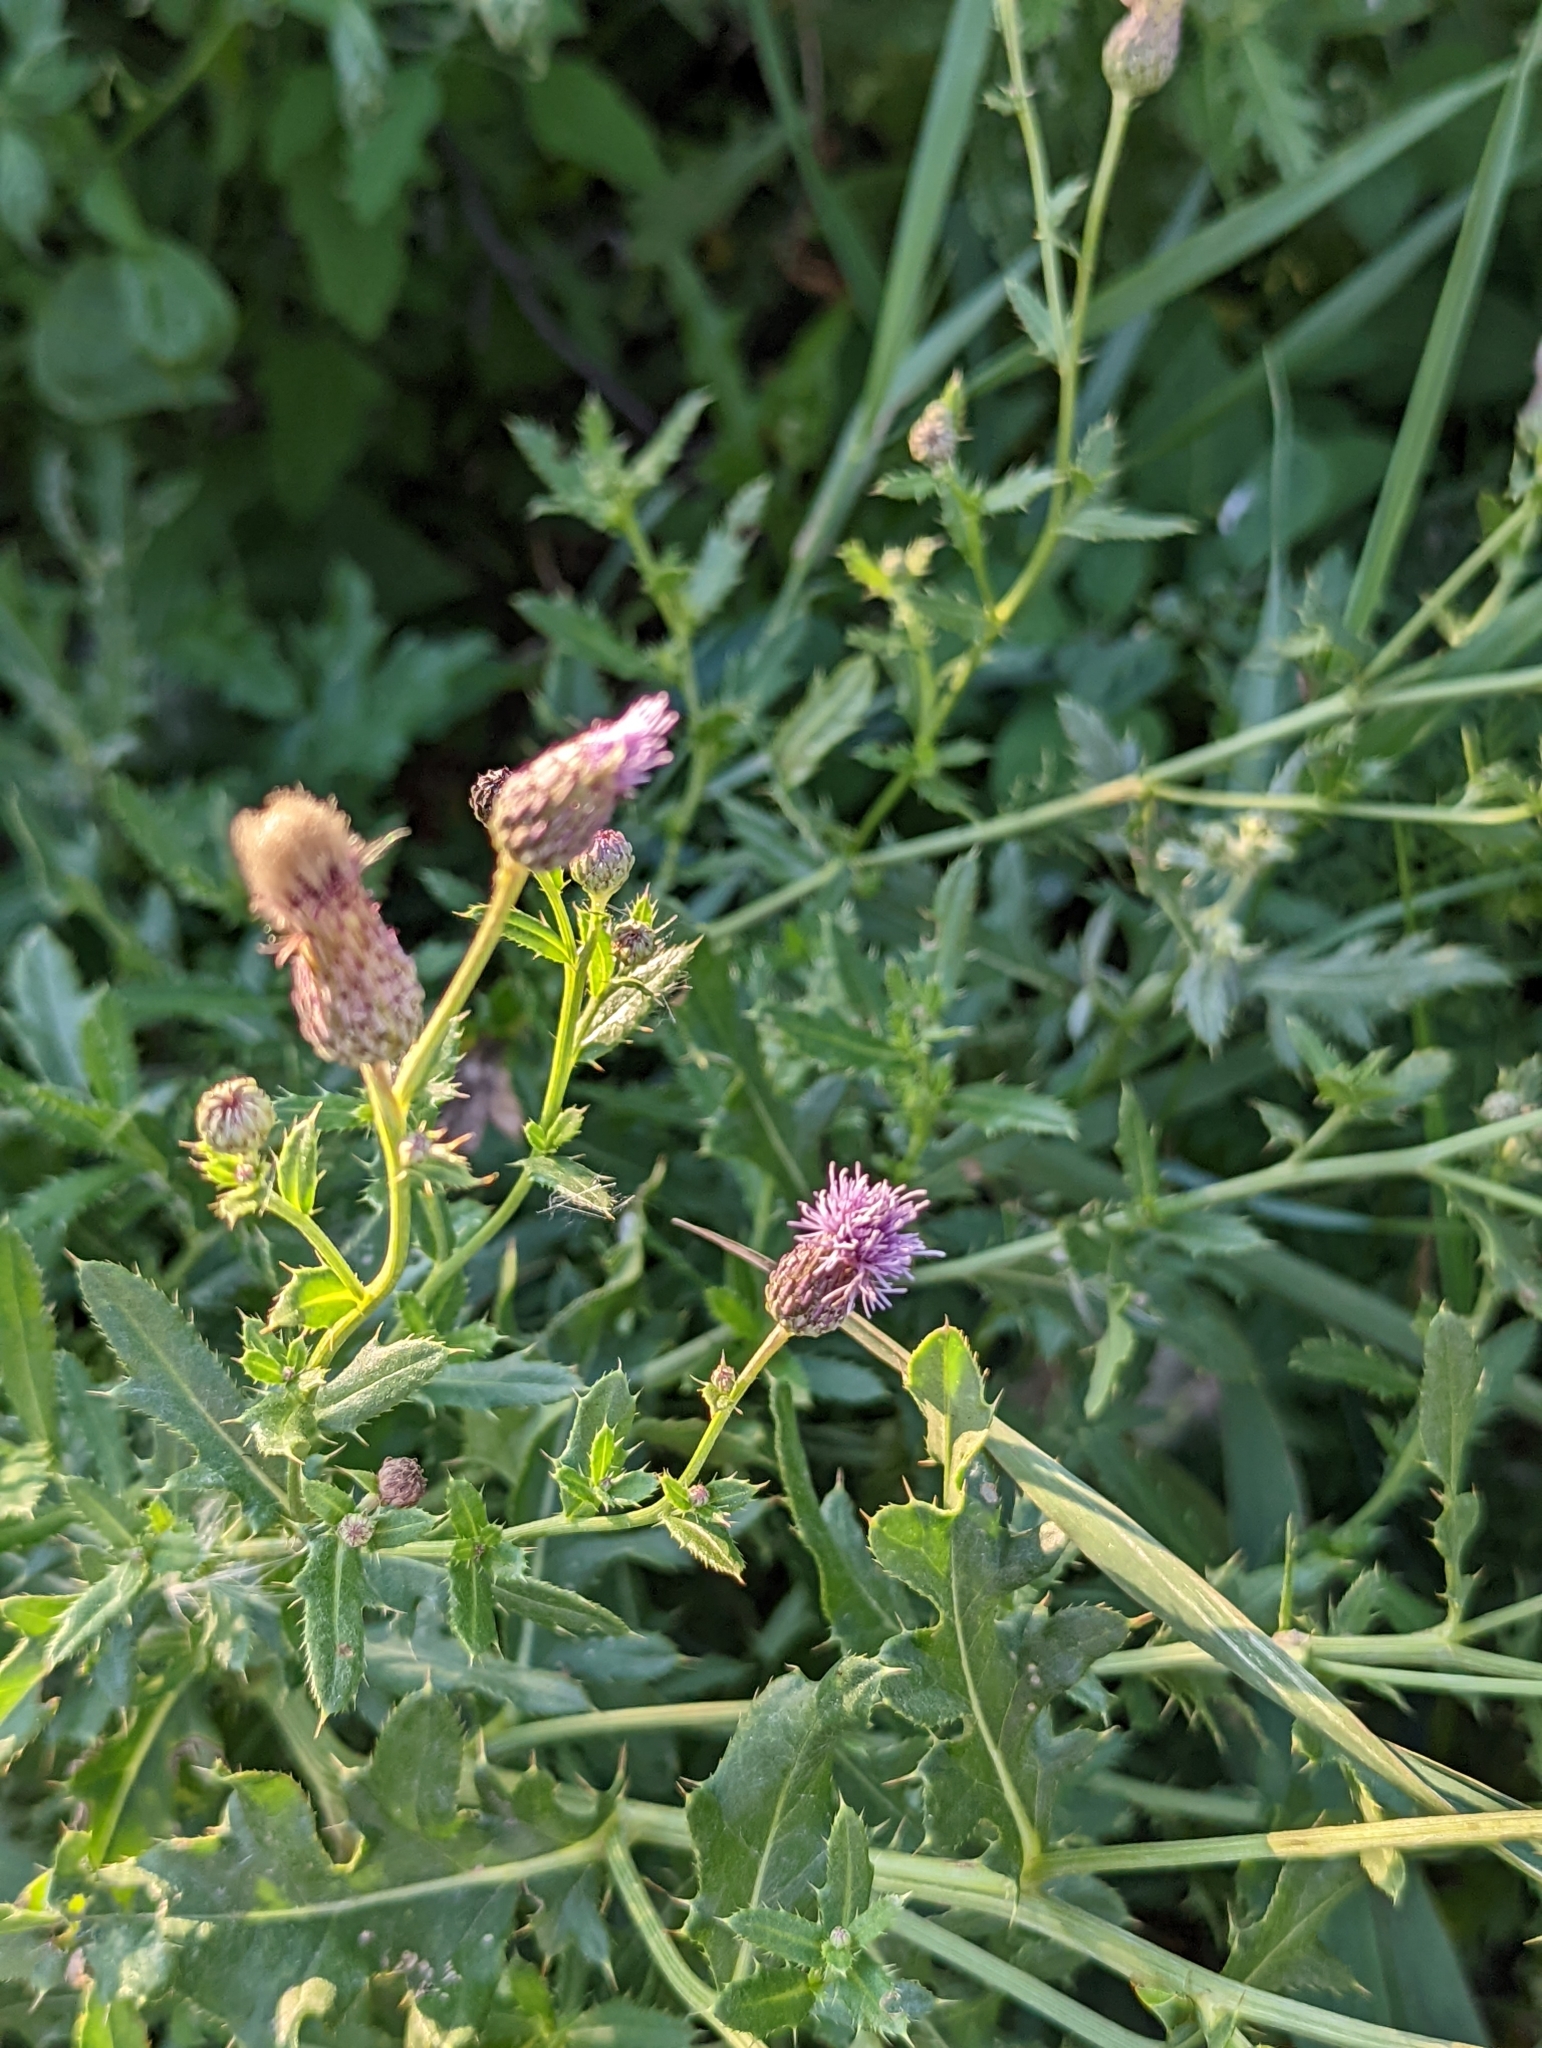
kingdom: Plantae
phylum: Tracheophyta
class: Magnoliopsida
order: Asterales
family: Asteraceae
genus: Cirsium
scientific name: Cirsium arvense
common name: Creeping thistle
